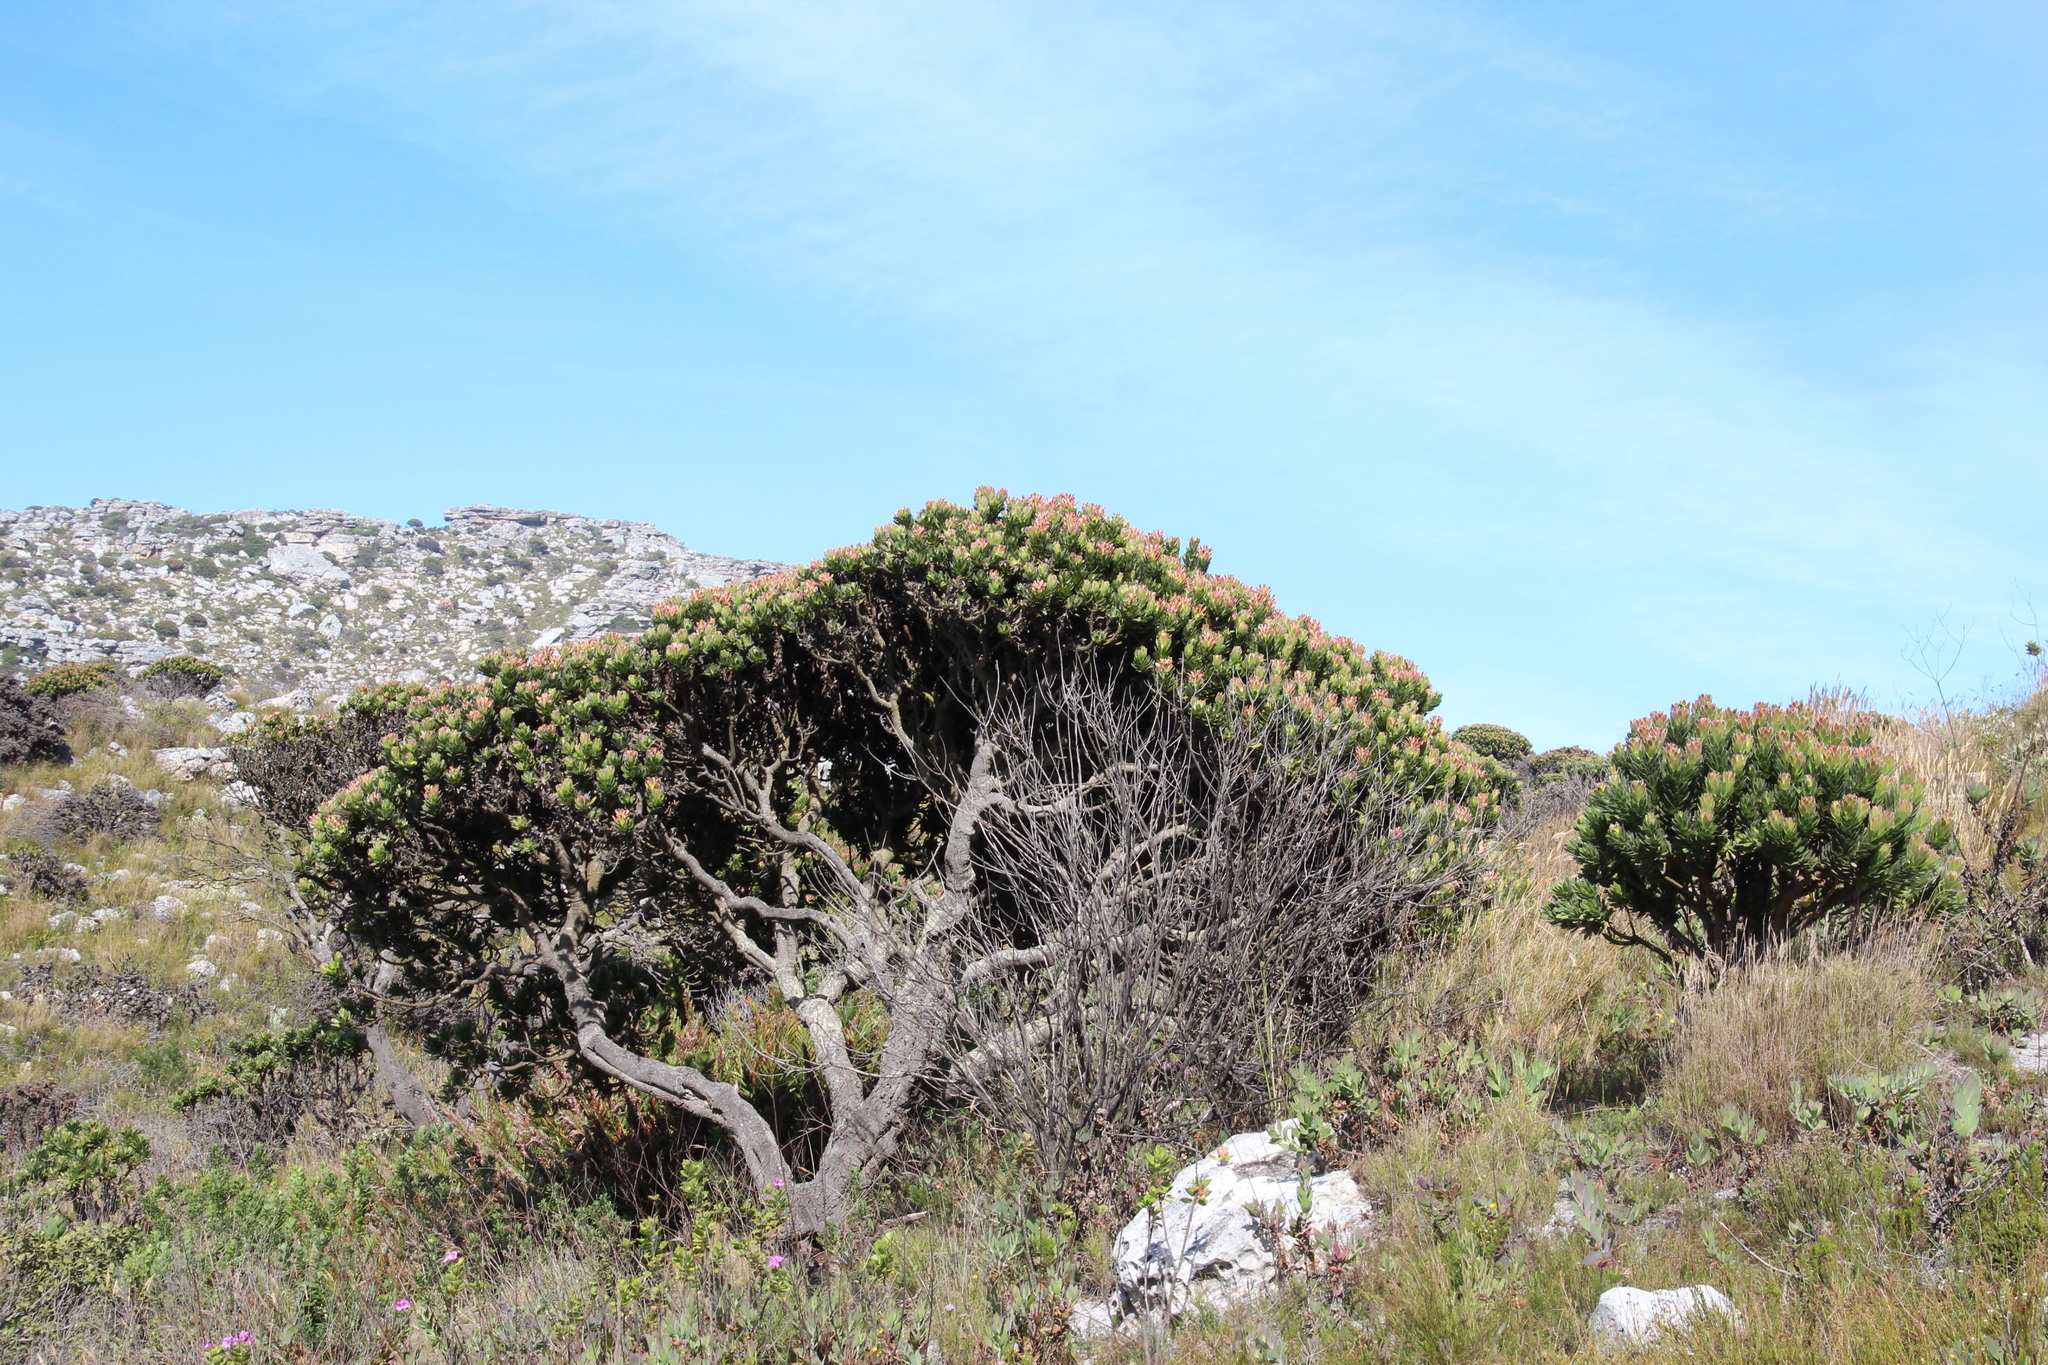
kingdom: Plantae
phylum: Tracheophyta
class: Magnoliopsida
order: Proteales
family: Proteaceae
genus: Mimetes
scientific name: Mimetes fimbriifolius
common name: Fringed bottlebrush
